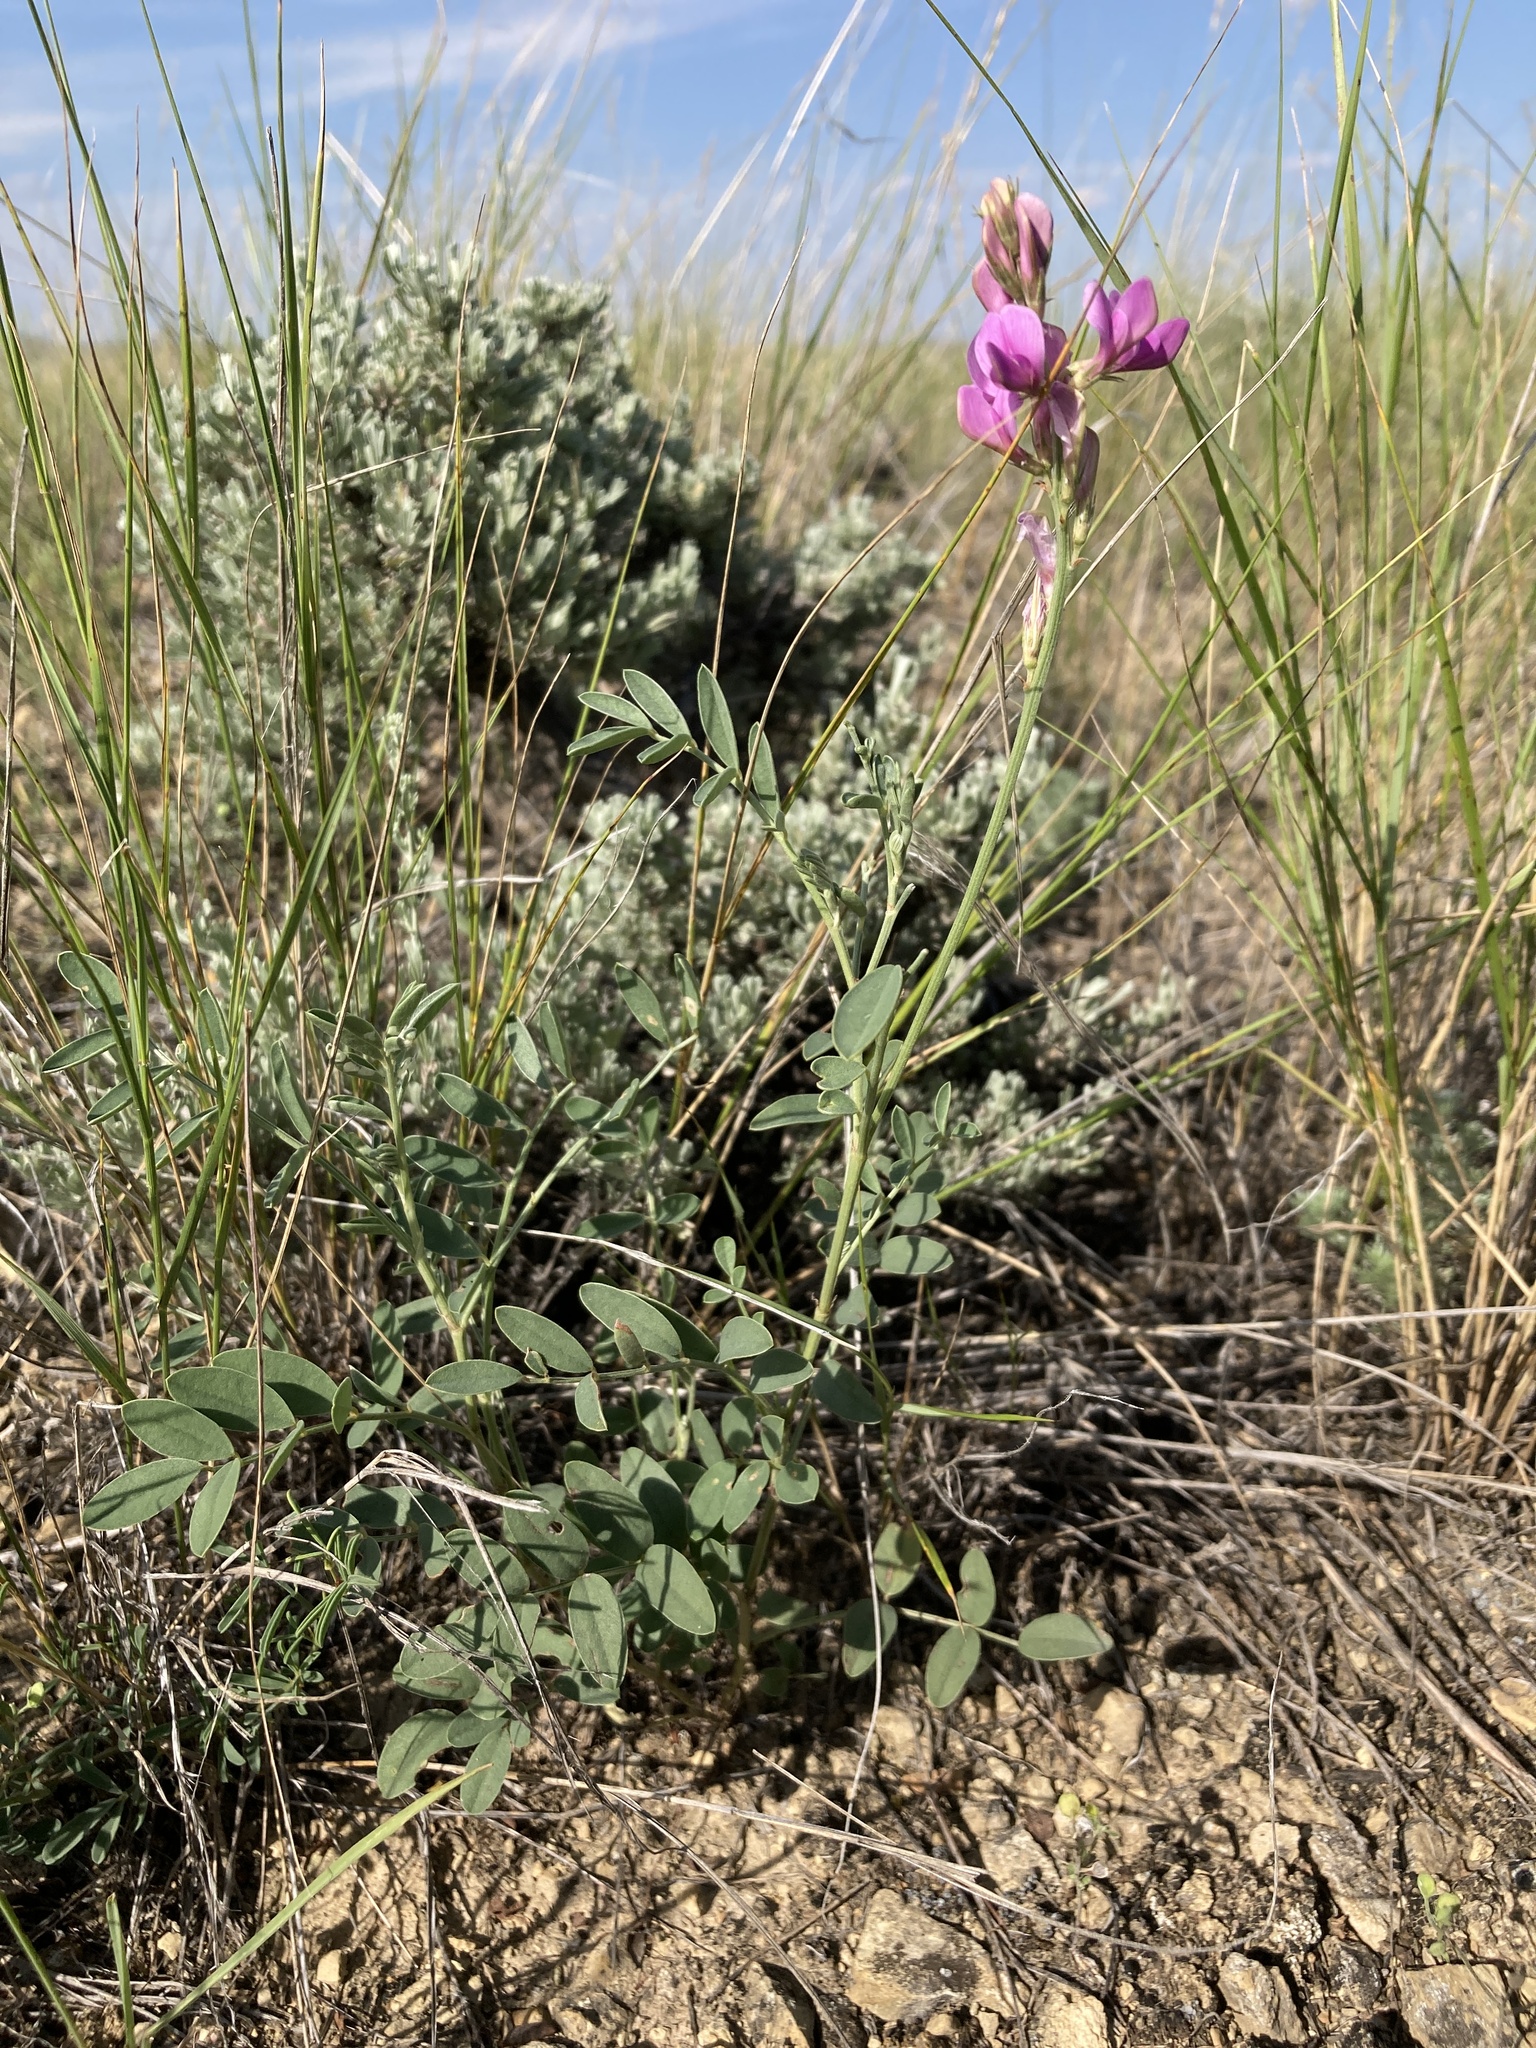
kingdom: Plantae
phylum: Tracheophyta
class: Magnoliopsida
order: Fabales
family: Fabaceae
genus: Hedysarum
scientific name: Hedysarum boreale
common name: Northern sweet-vetch
